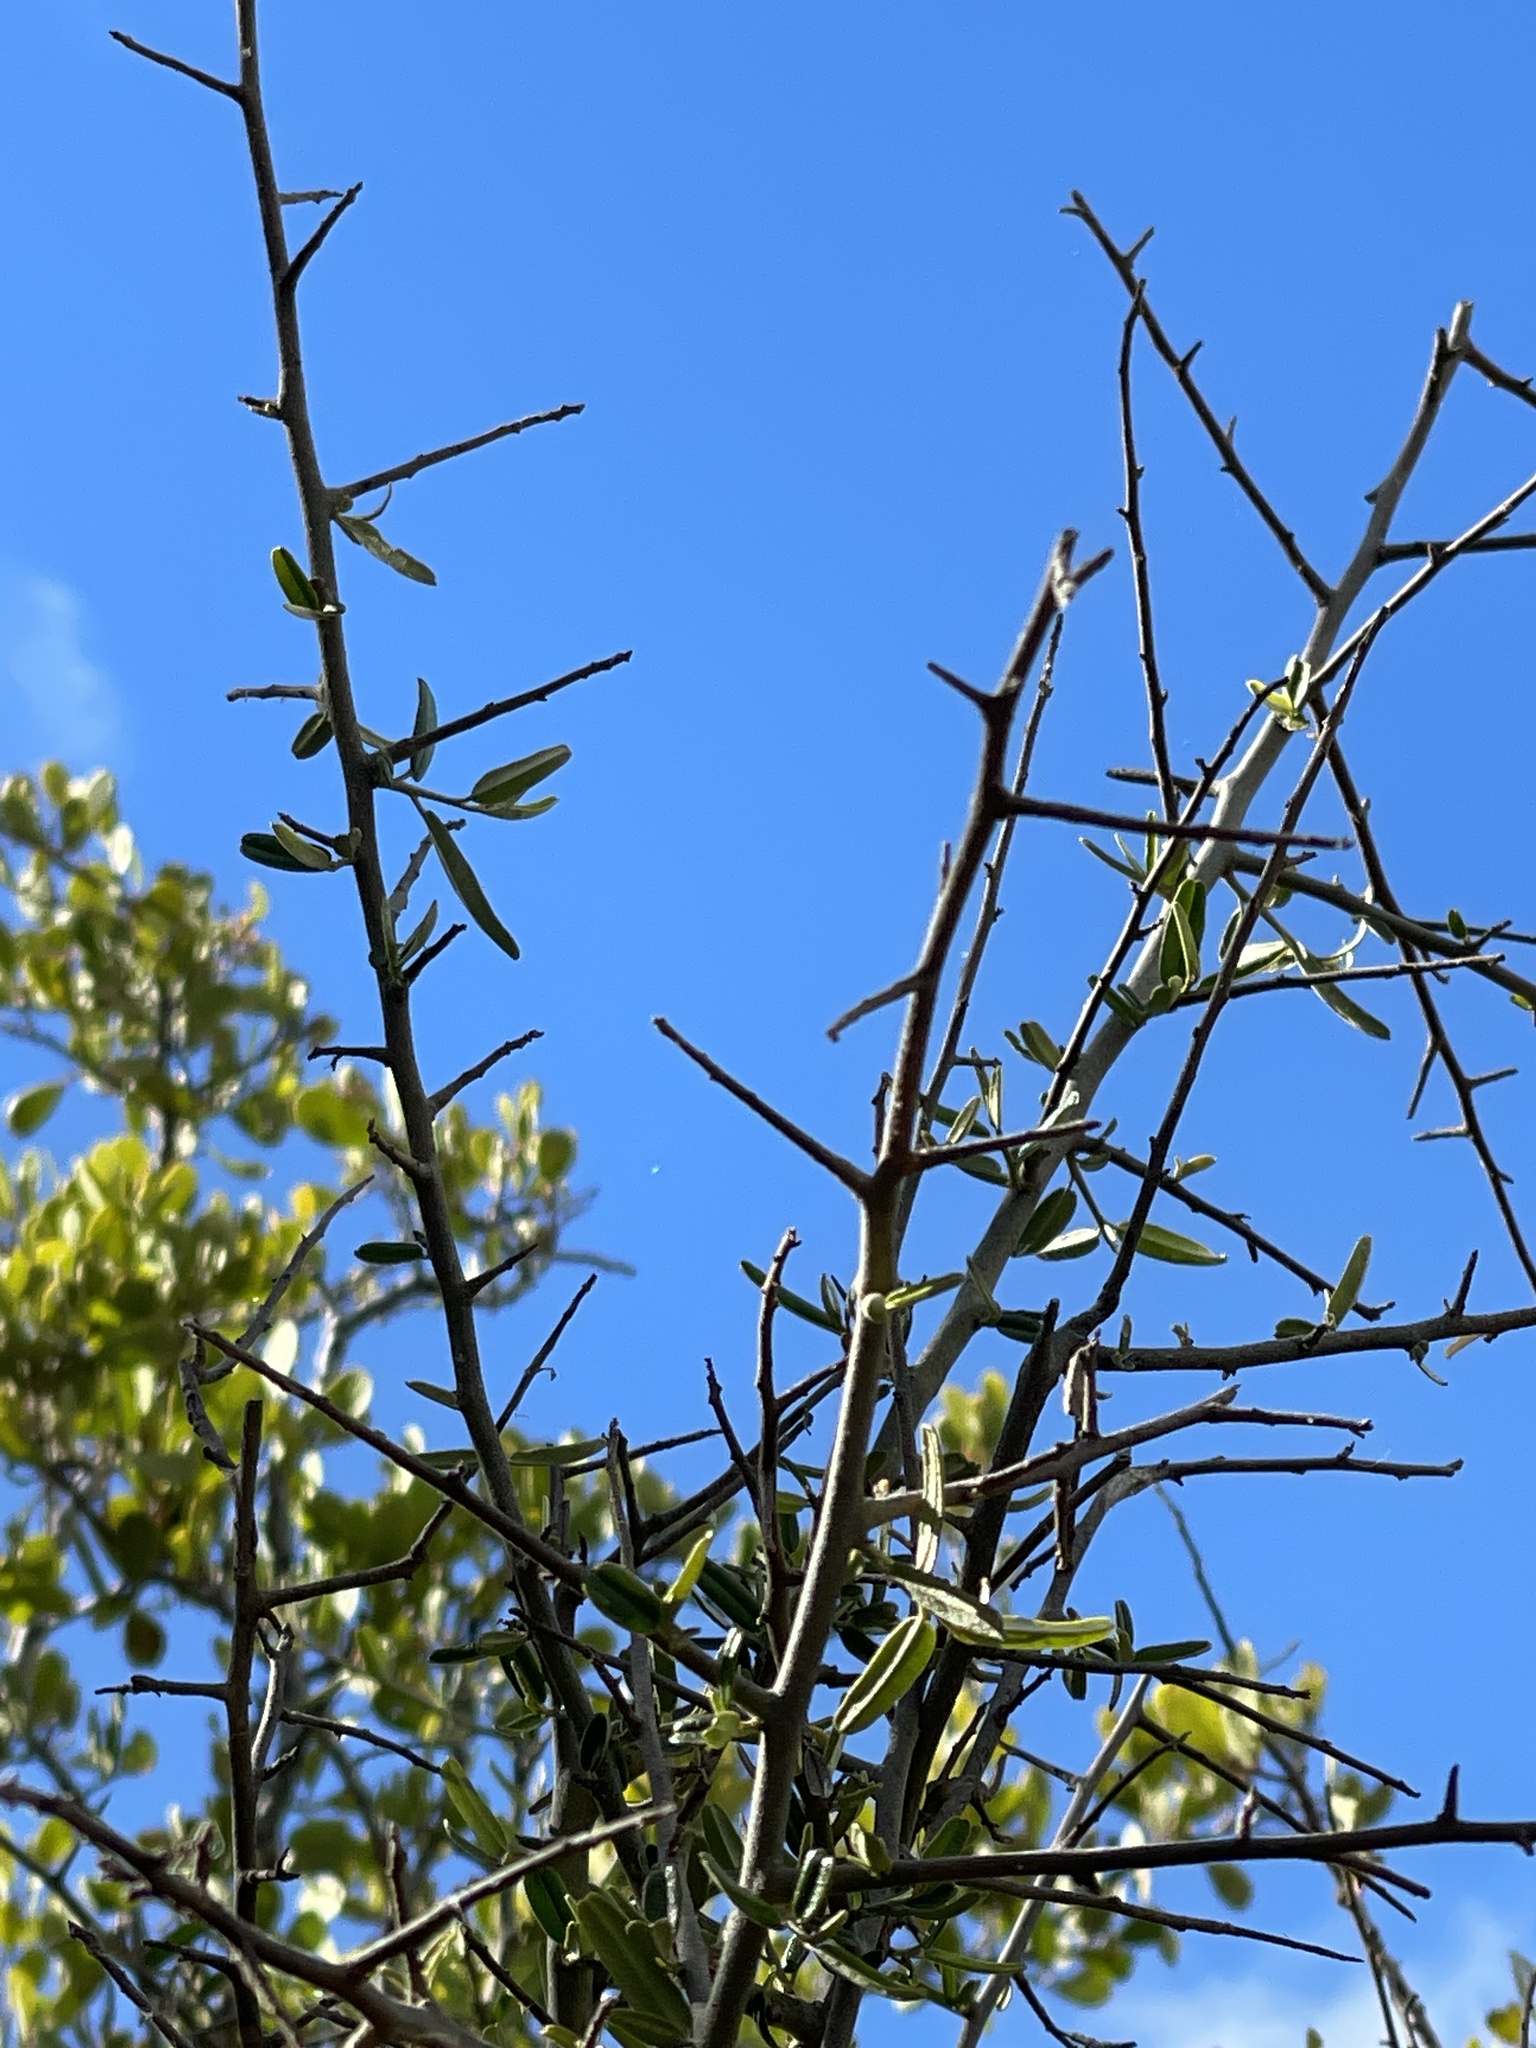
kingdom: Plantae
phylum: Tracheophyta
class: Magnoliopsida
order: Brassicales
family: Capparaceae
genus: Atamisquea
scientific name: Atamisquea emarginata
